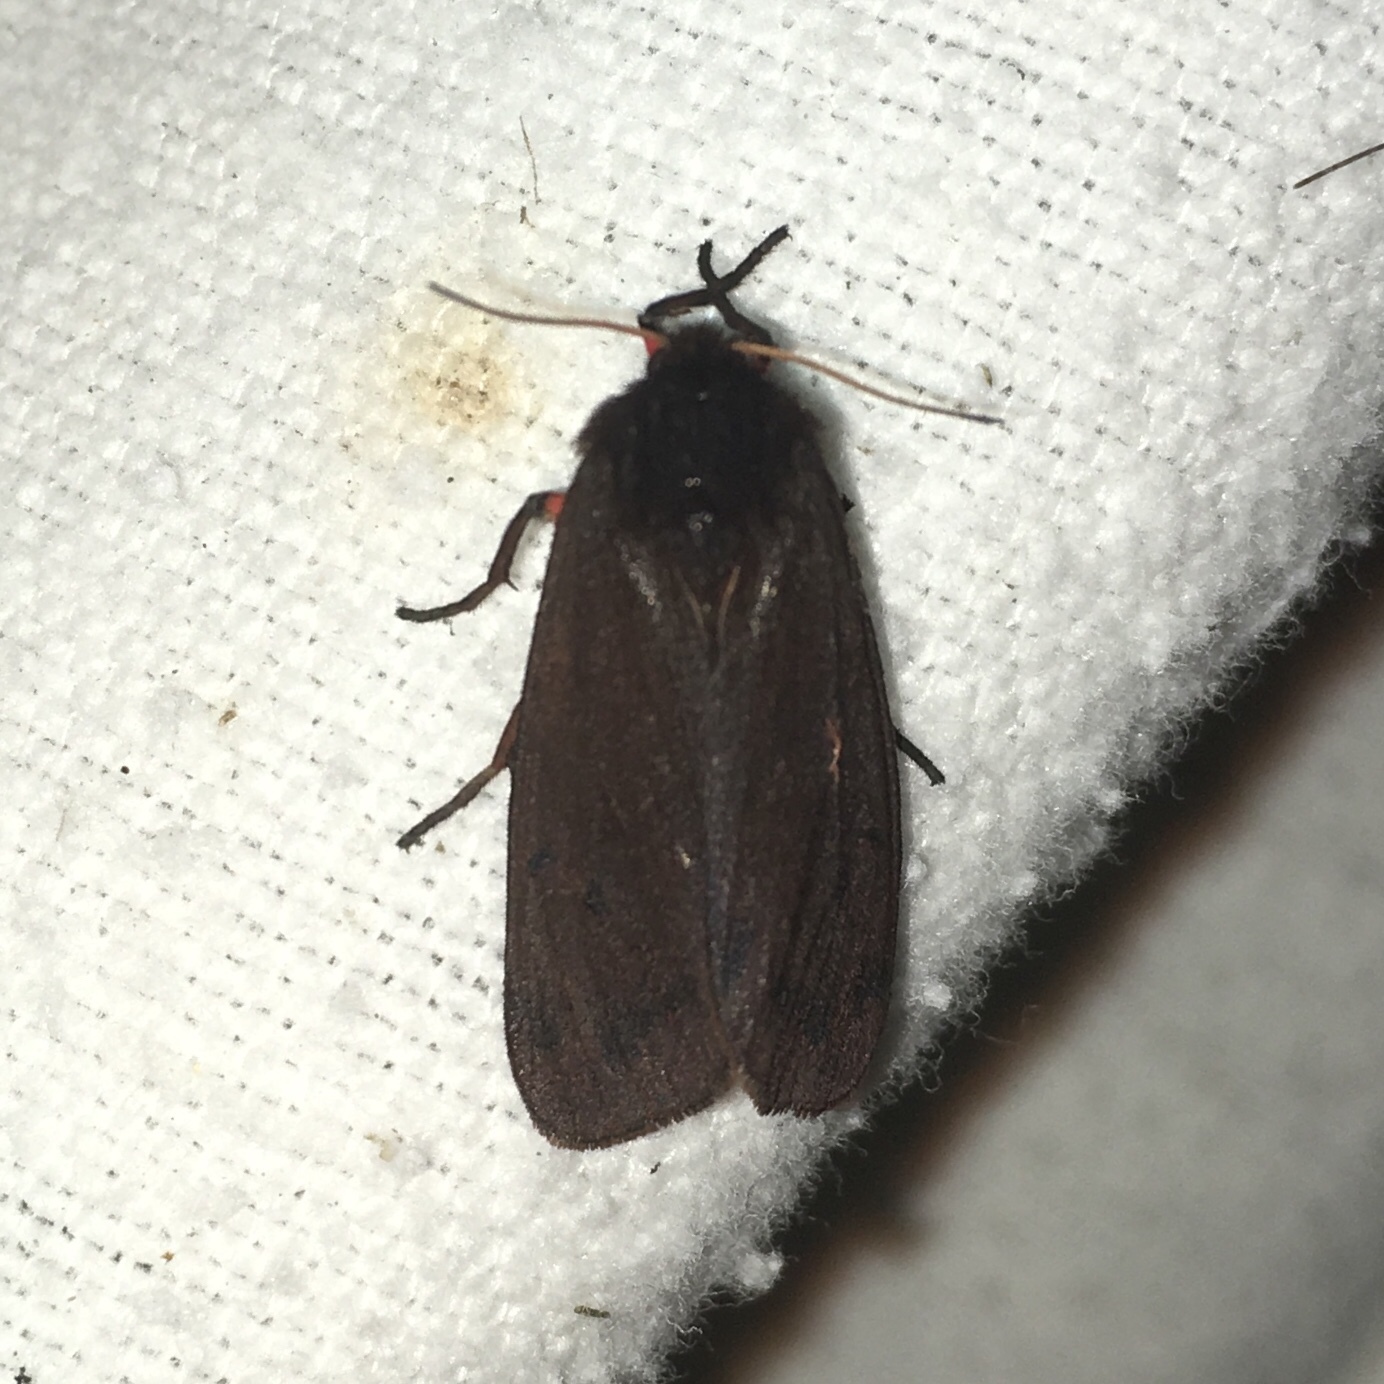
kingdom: Animalia
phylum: Arthropoda
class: Insecta
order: Lepidoptera
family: Erebidae
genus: Phragmatobia
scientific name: Phragmatobia fuliginosa
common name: Ruby tiger
